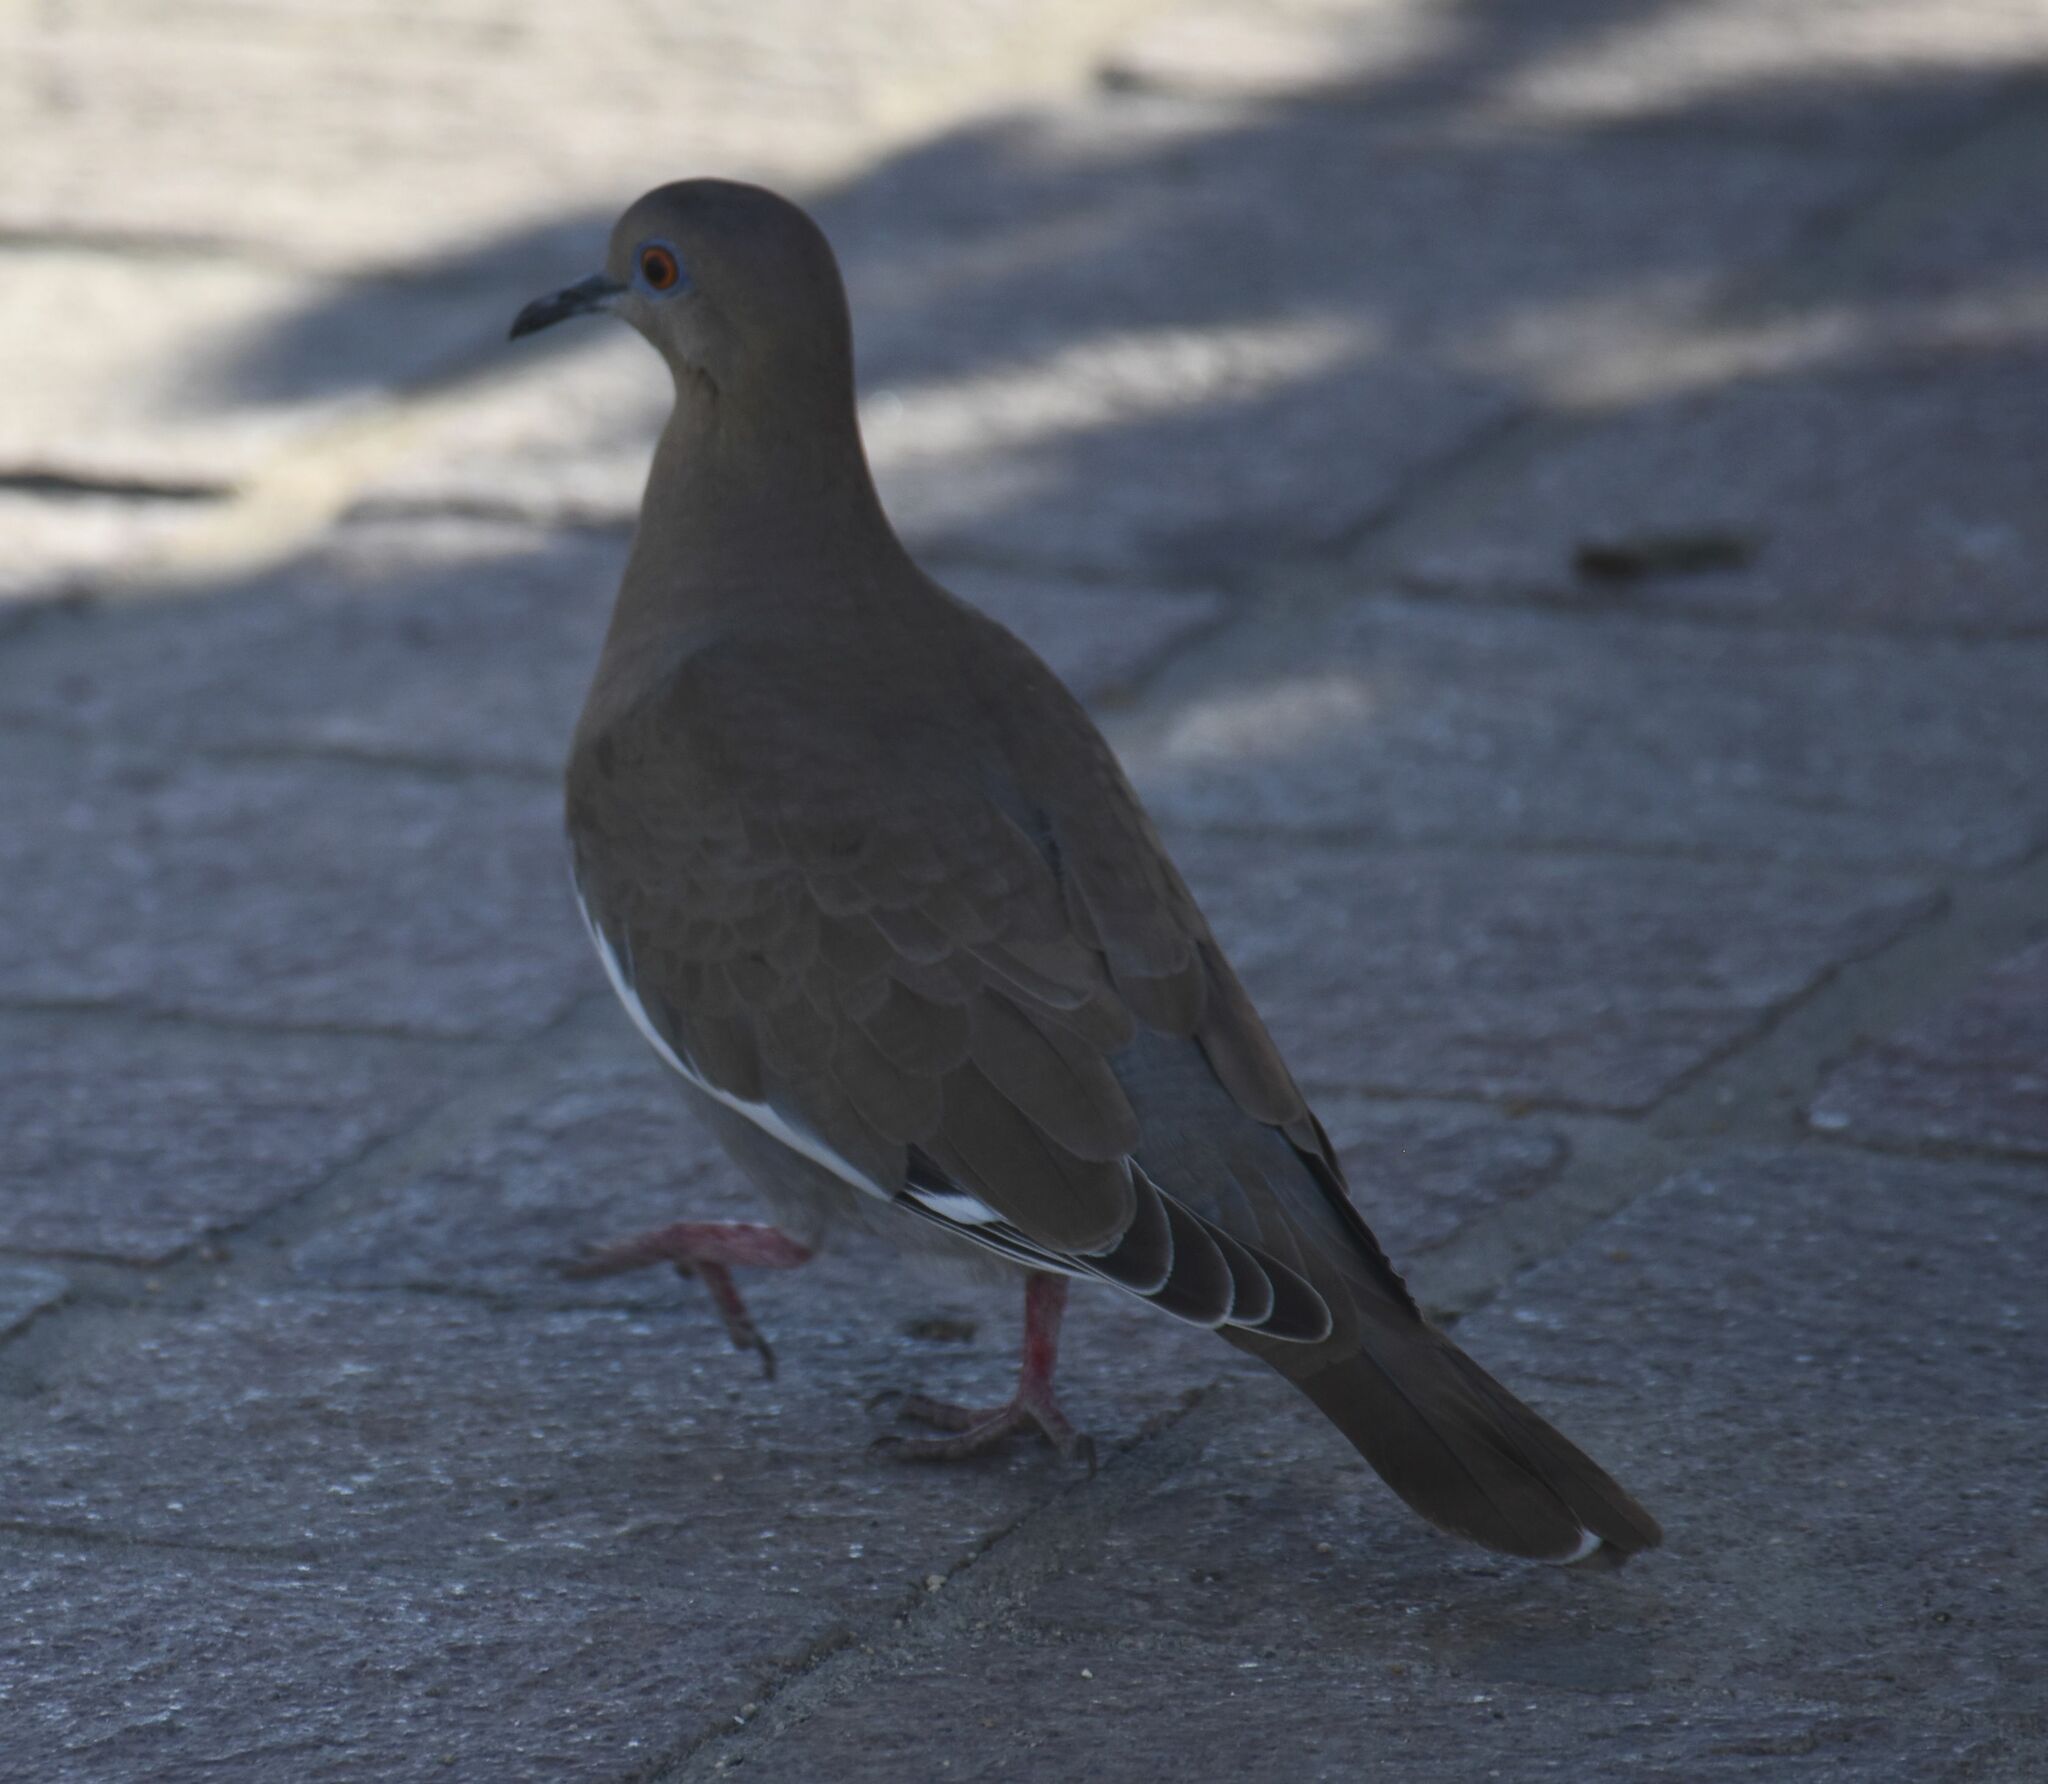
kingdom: Animalia
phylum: Chordata
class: Aves
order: Columbiformes
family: Columbidae
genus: Zenaida
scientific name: Zenaida asiatica
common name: White-winged dove
